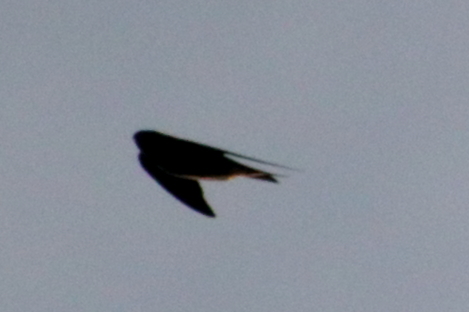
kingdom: Animalia
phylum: Chordata
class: Aves
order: Passeriformes
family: Hirundinidae
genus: Progne
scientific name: Progne subis
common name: Purple martin
